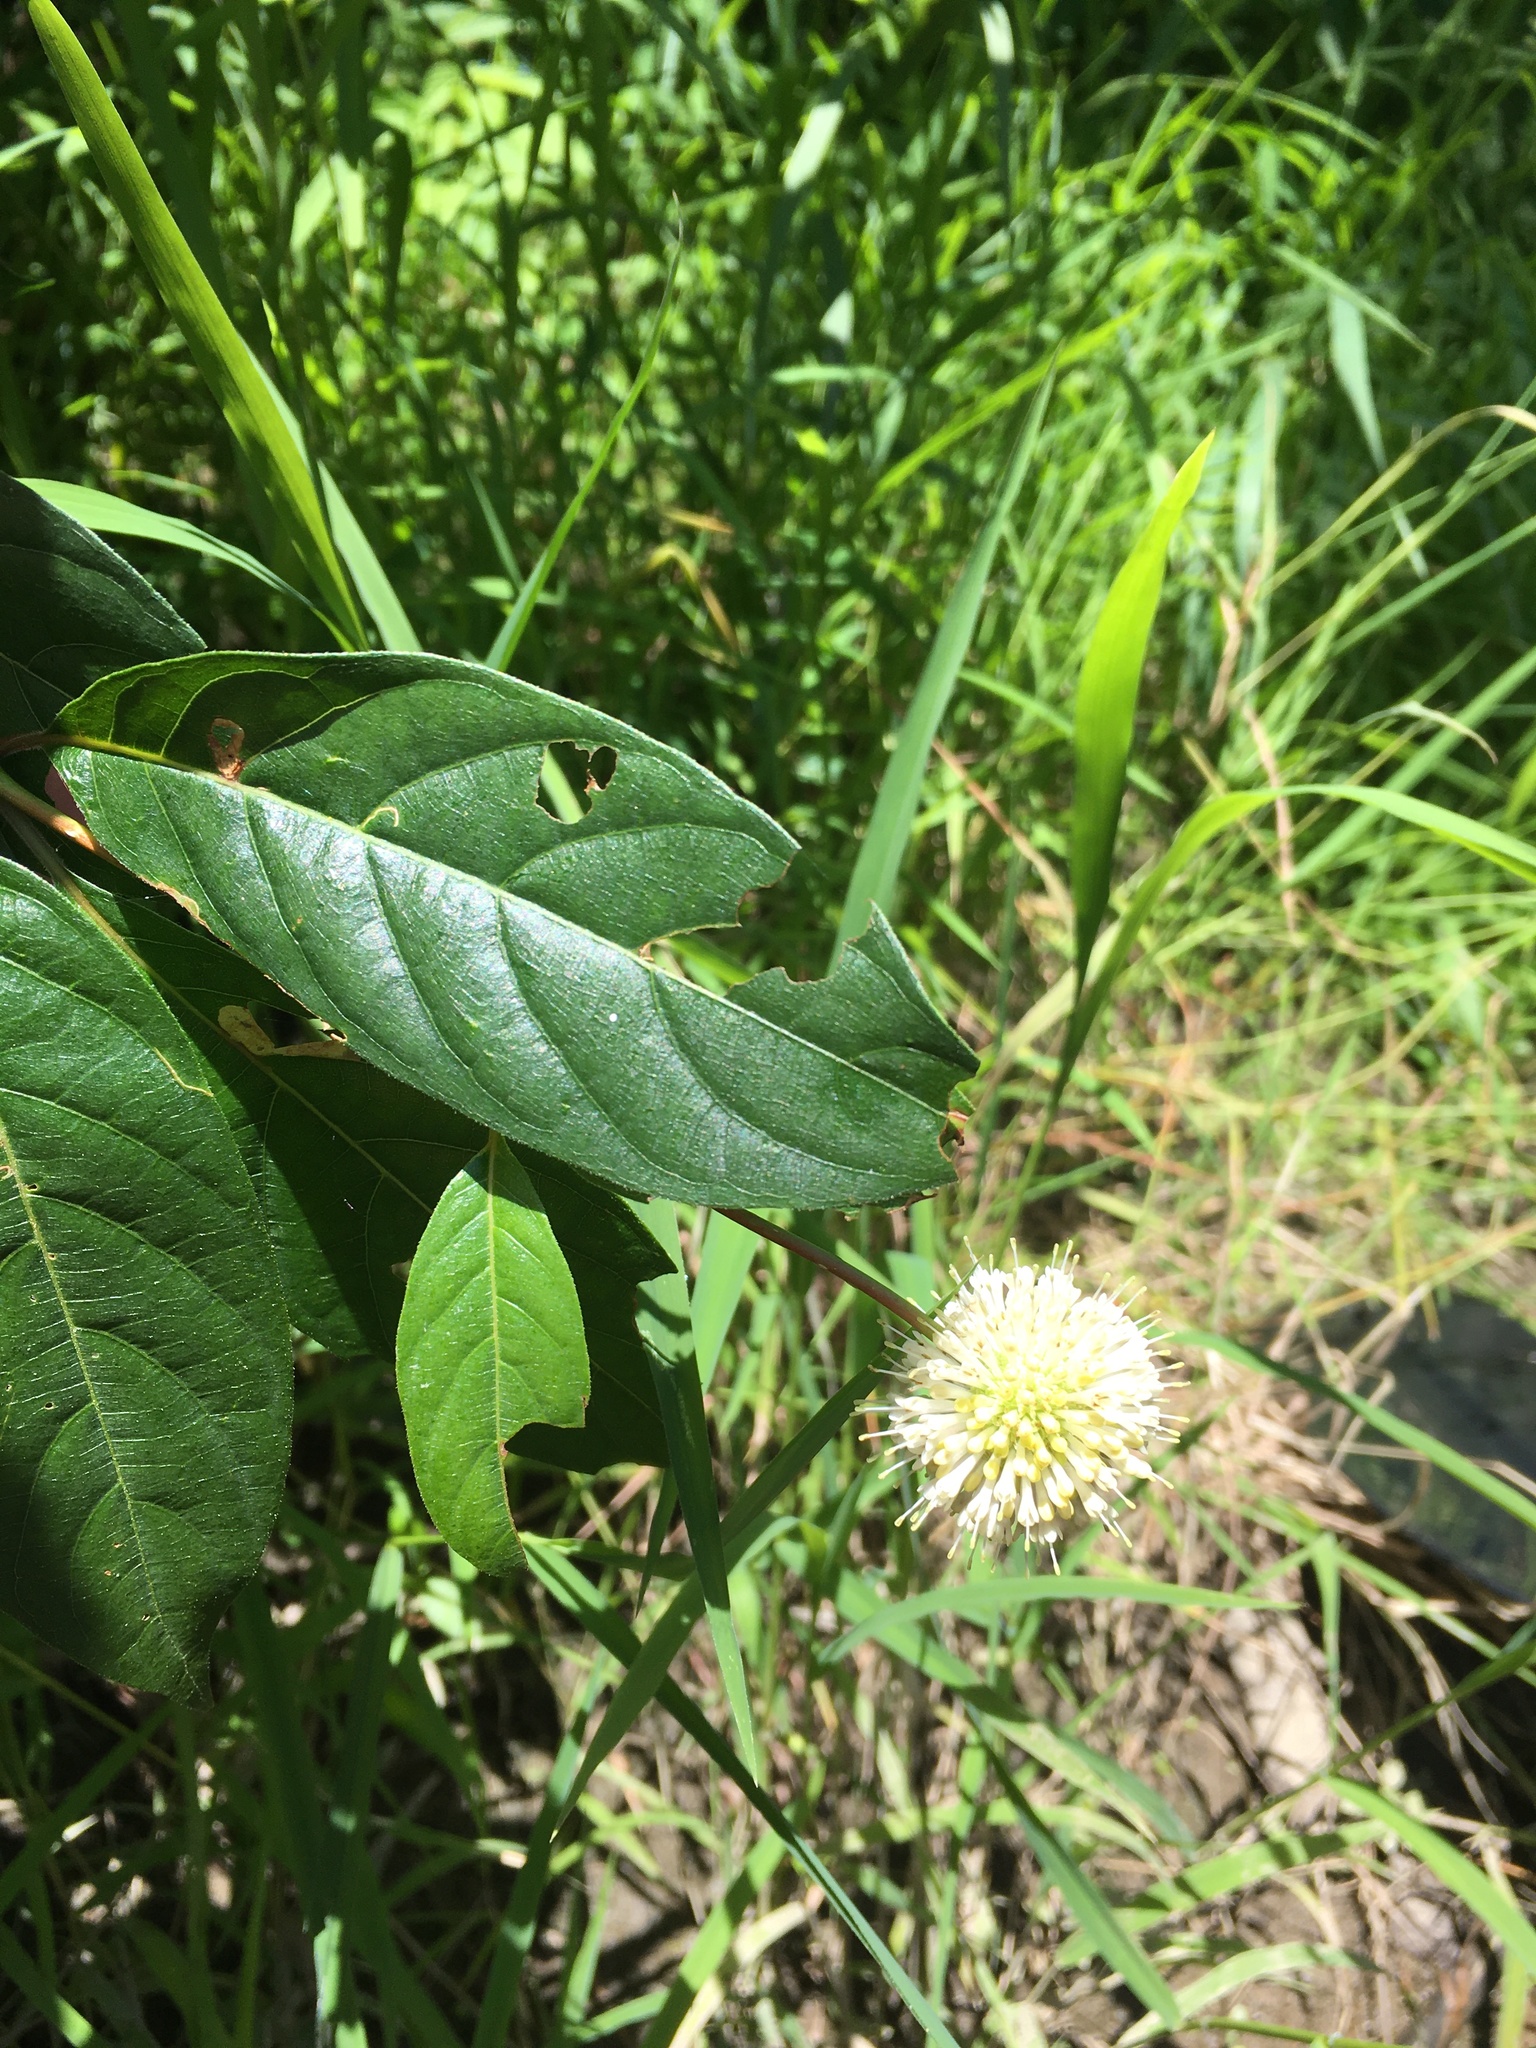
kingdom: Plantae
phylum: Tracheophyta
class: Magnoliopsida
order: Gentianales
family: Rubiaceae
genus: Cephalanthus
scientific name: Cephalanthus occidentalis
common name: Button-willow
